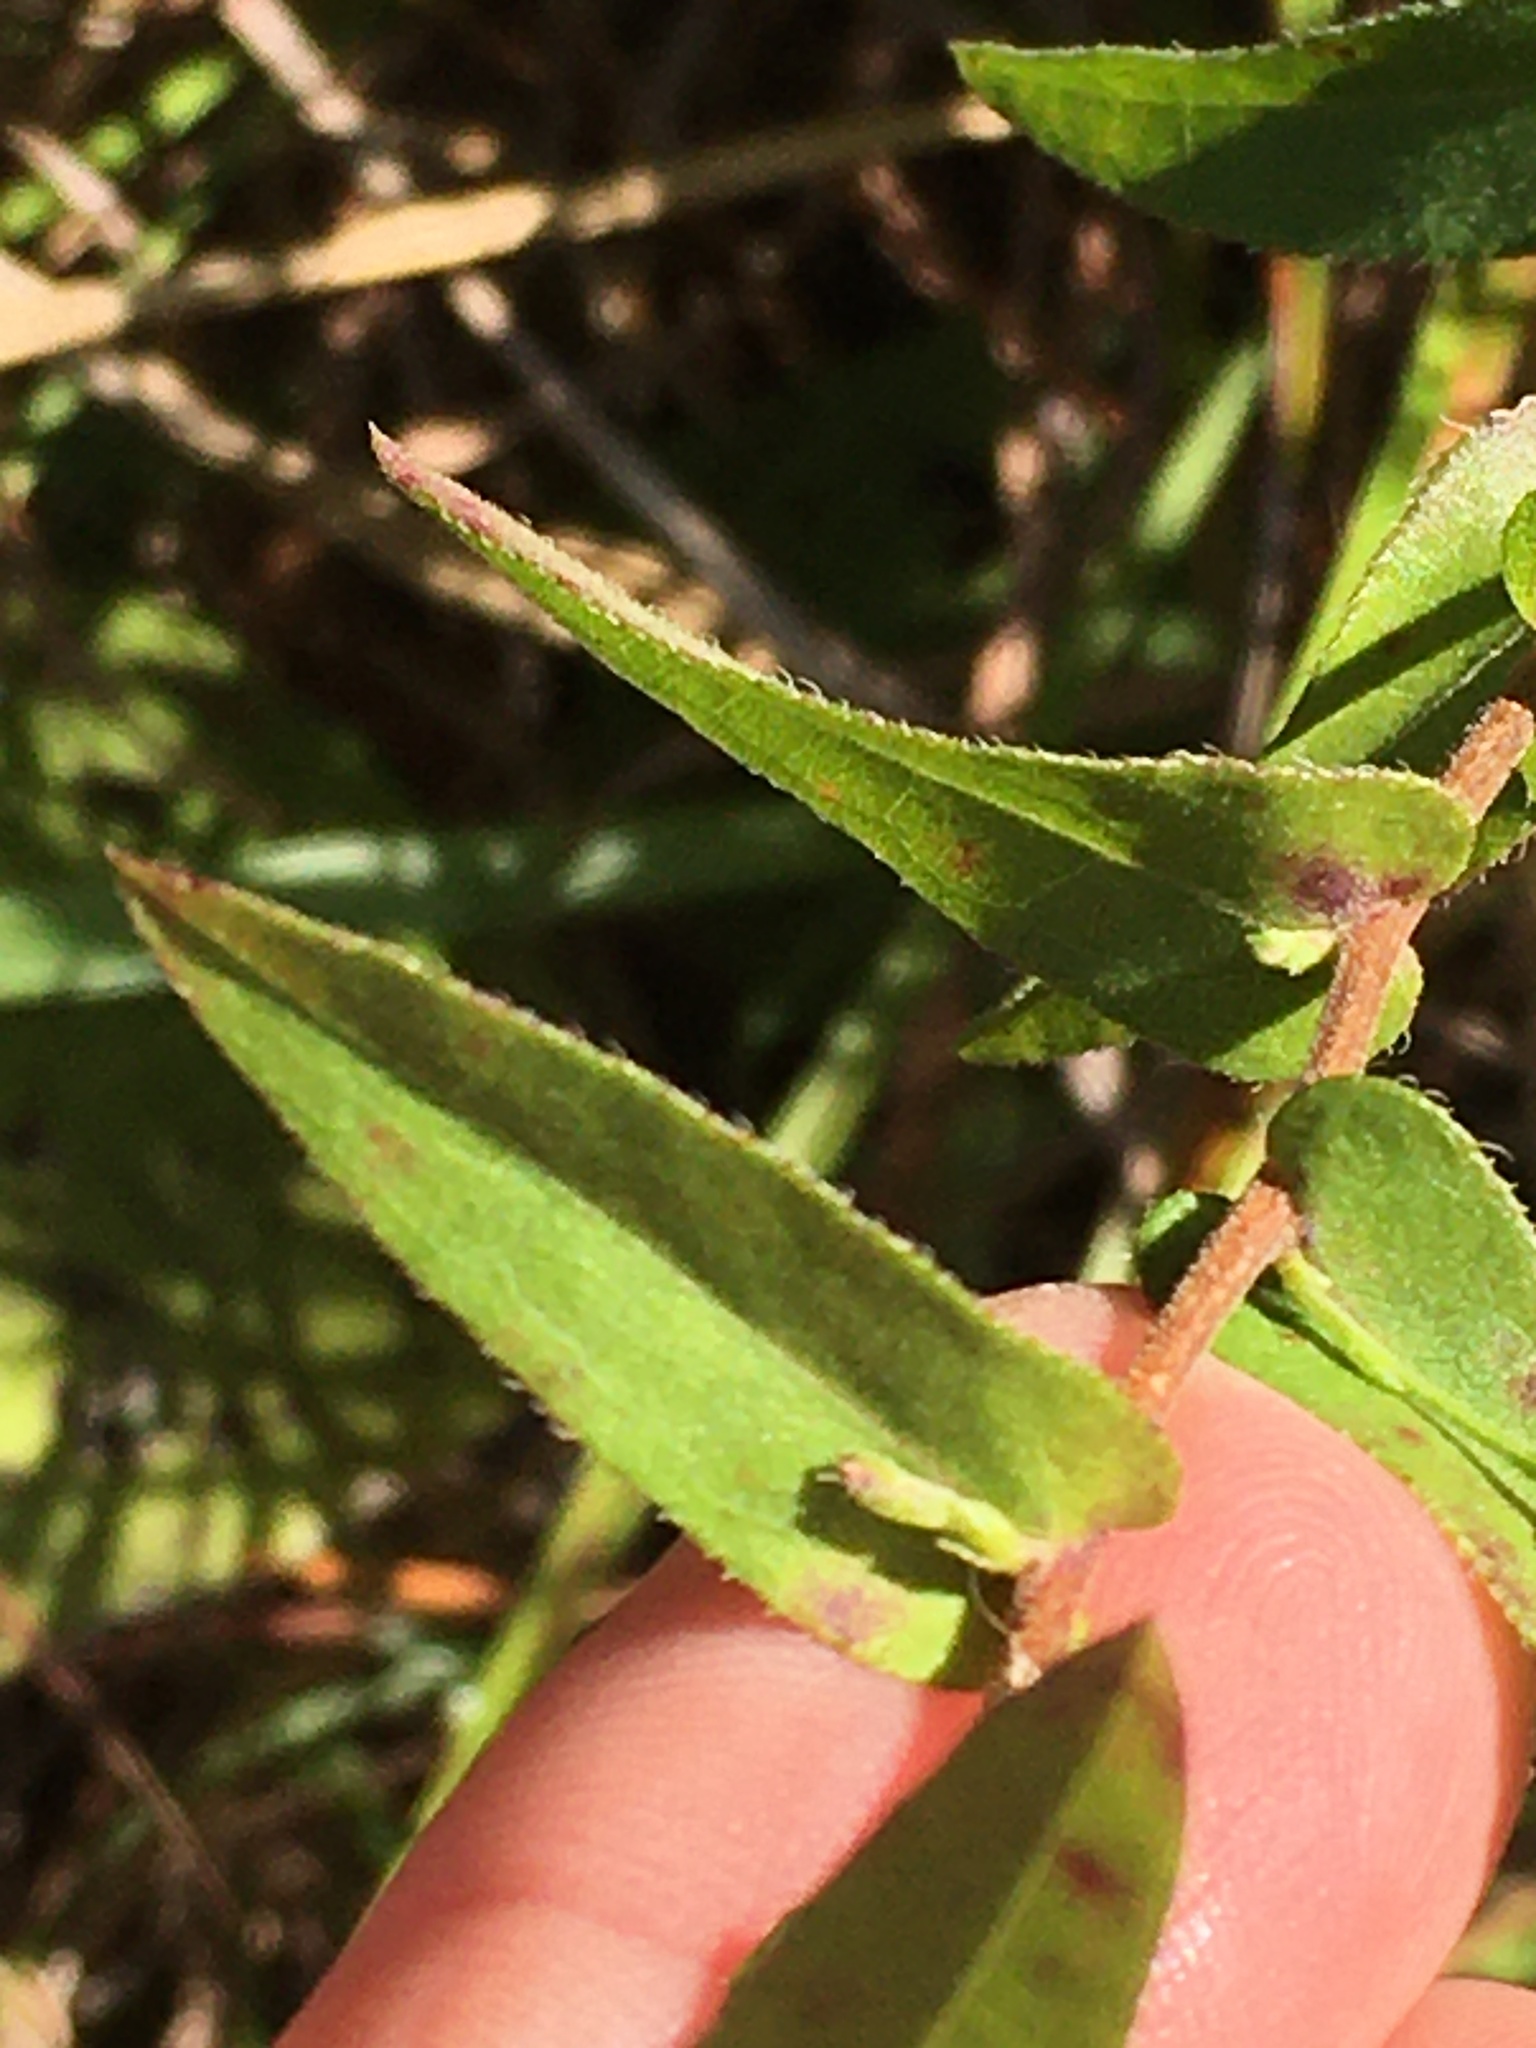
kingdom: Plantae
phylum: Tracheophyta
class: Magnoliopsida
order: Asterales
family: Asteraceae
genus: Symphyotrichum
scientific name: Symphyotrichum patens
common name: Late purple aster
